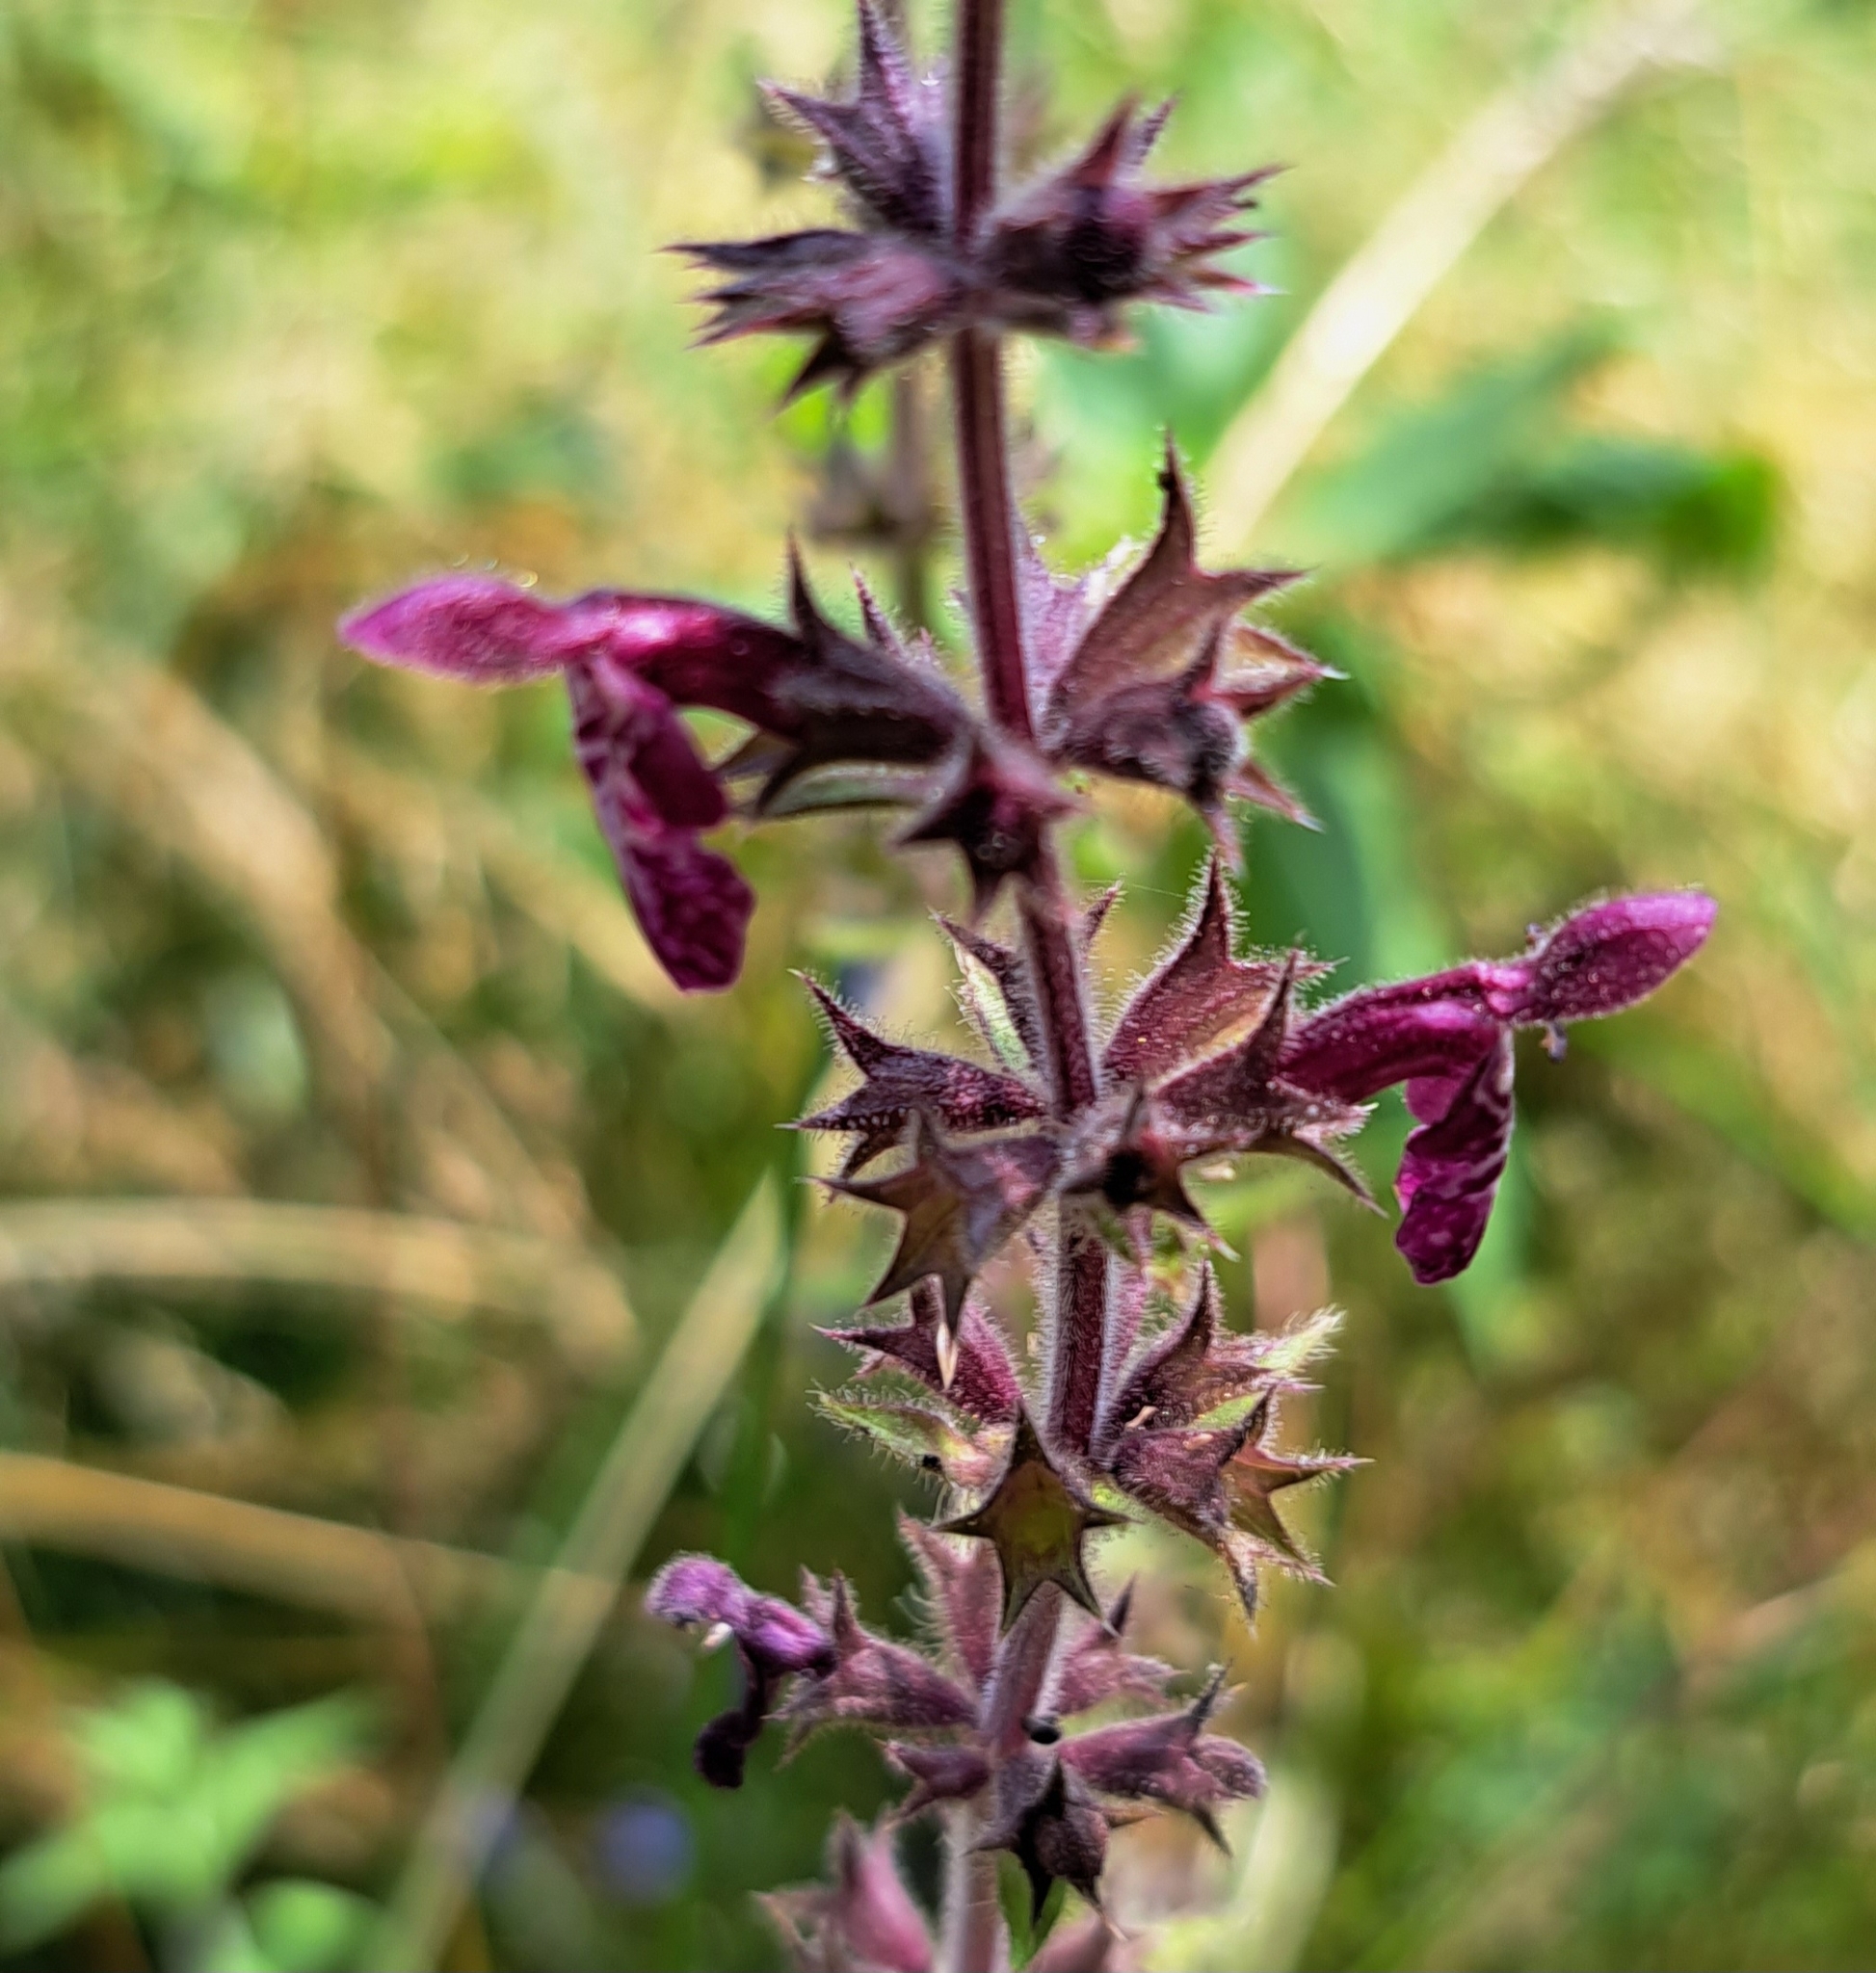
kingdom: Plantae
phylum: Tracheophyta
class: Magnoliopsida
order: Lamiales
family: Lamiaceae
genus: Stachys
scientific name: Stachys sylvatica
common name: Hedge woundwort
